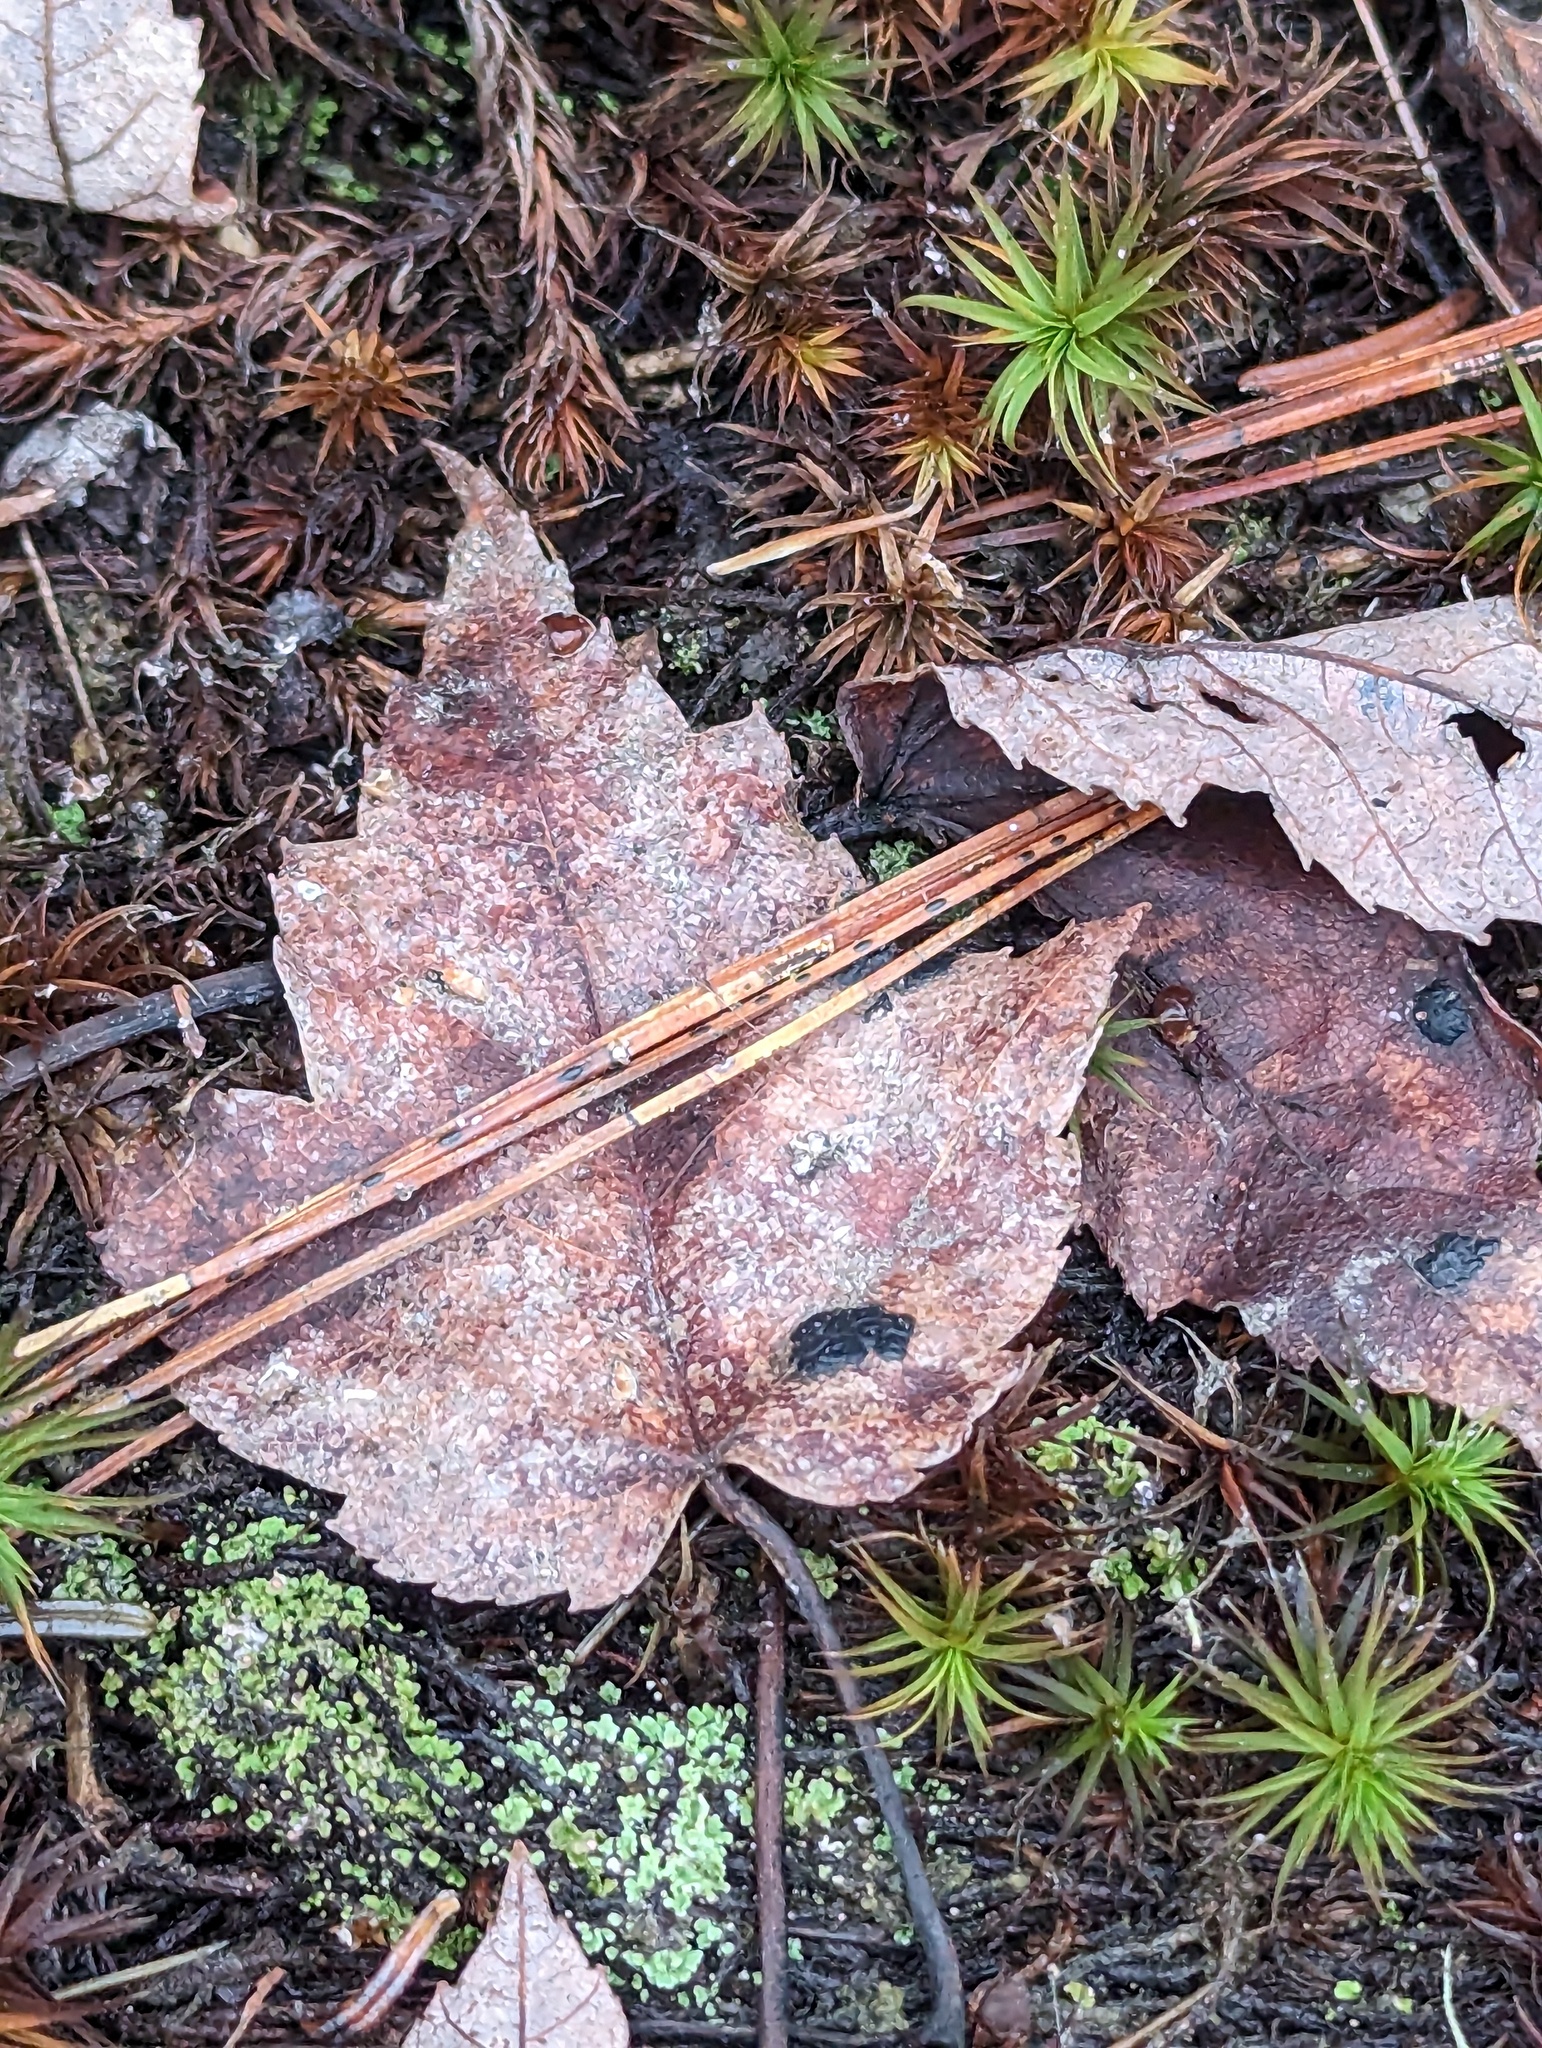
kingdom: Plantae
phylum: Tracheophyta
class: Magnoliopsida
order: Sapindales
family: Sapindaceae
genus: Acer
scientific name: Acer rubrum
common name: Red maple
